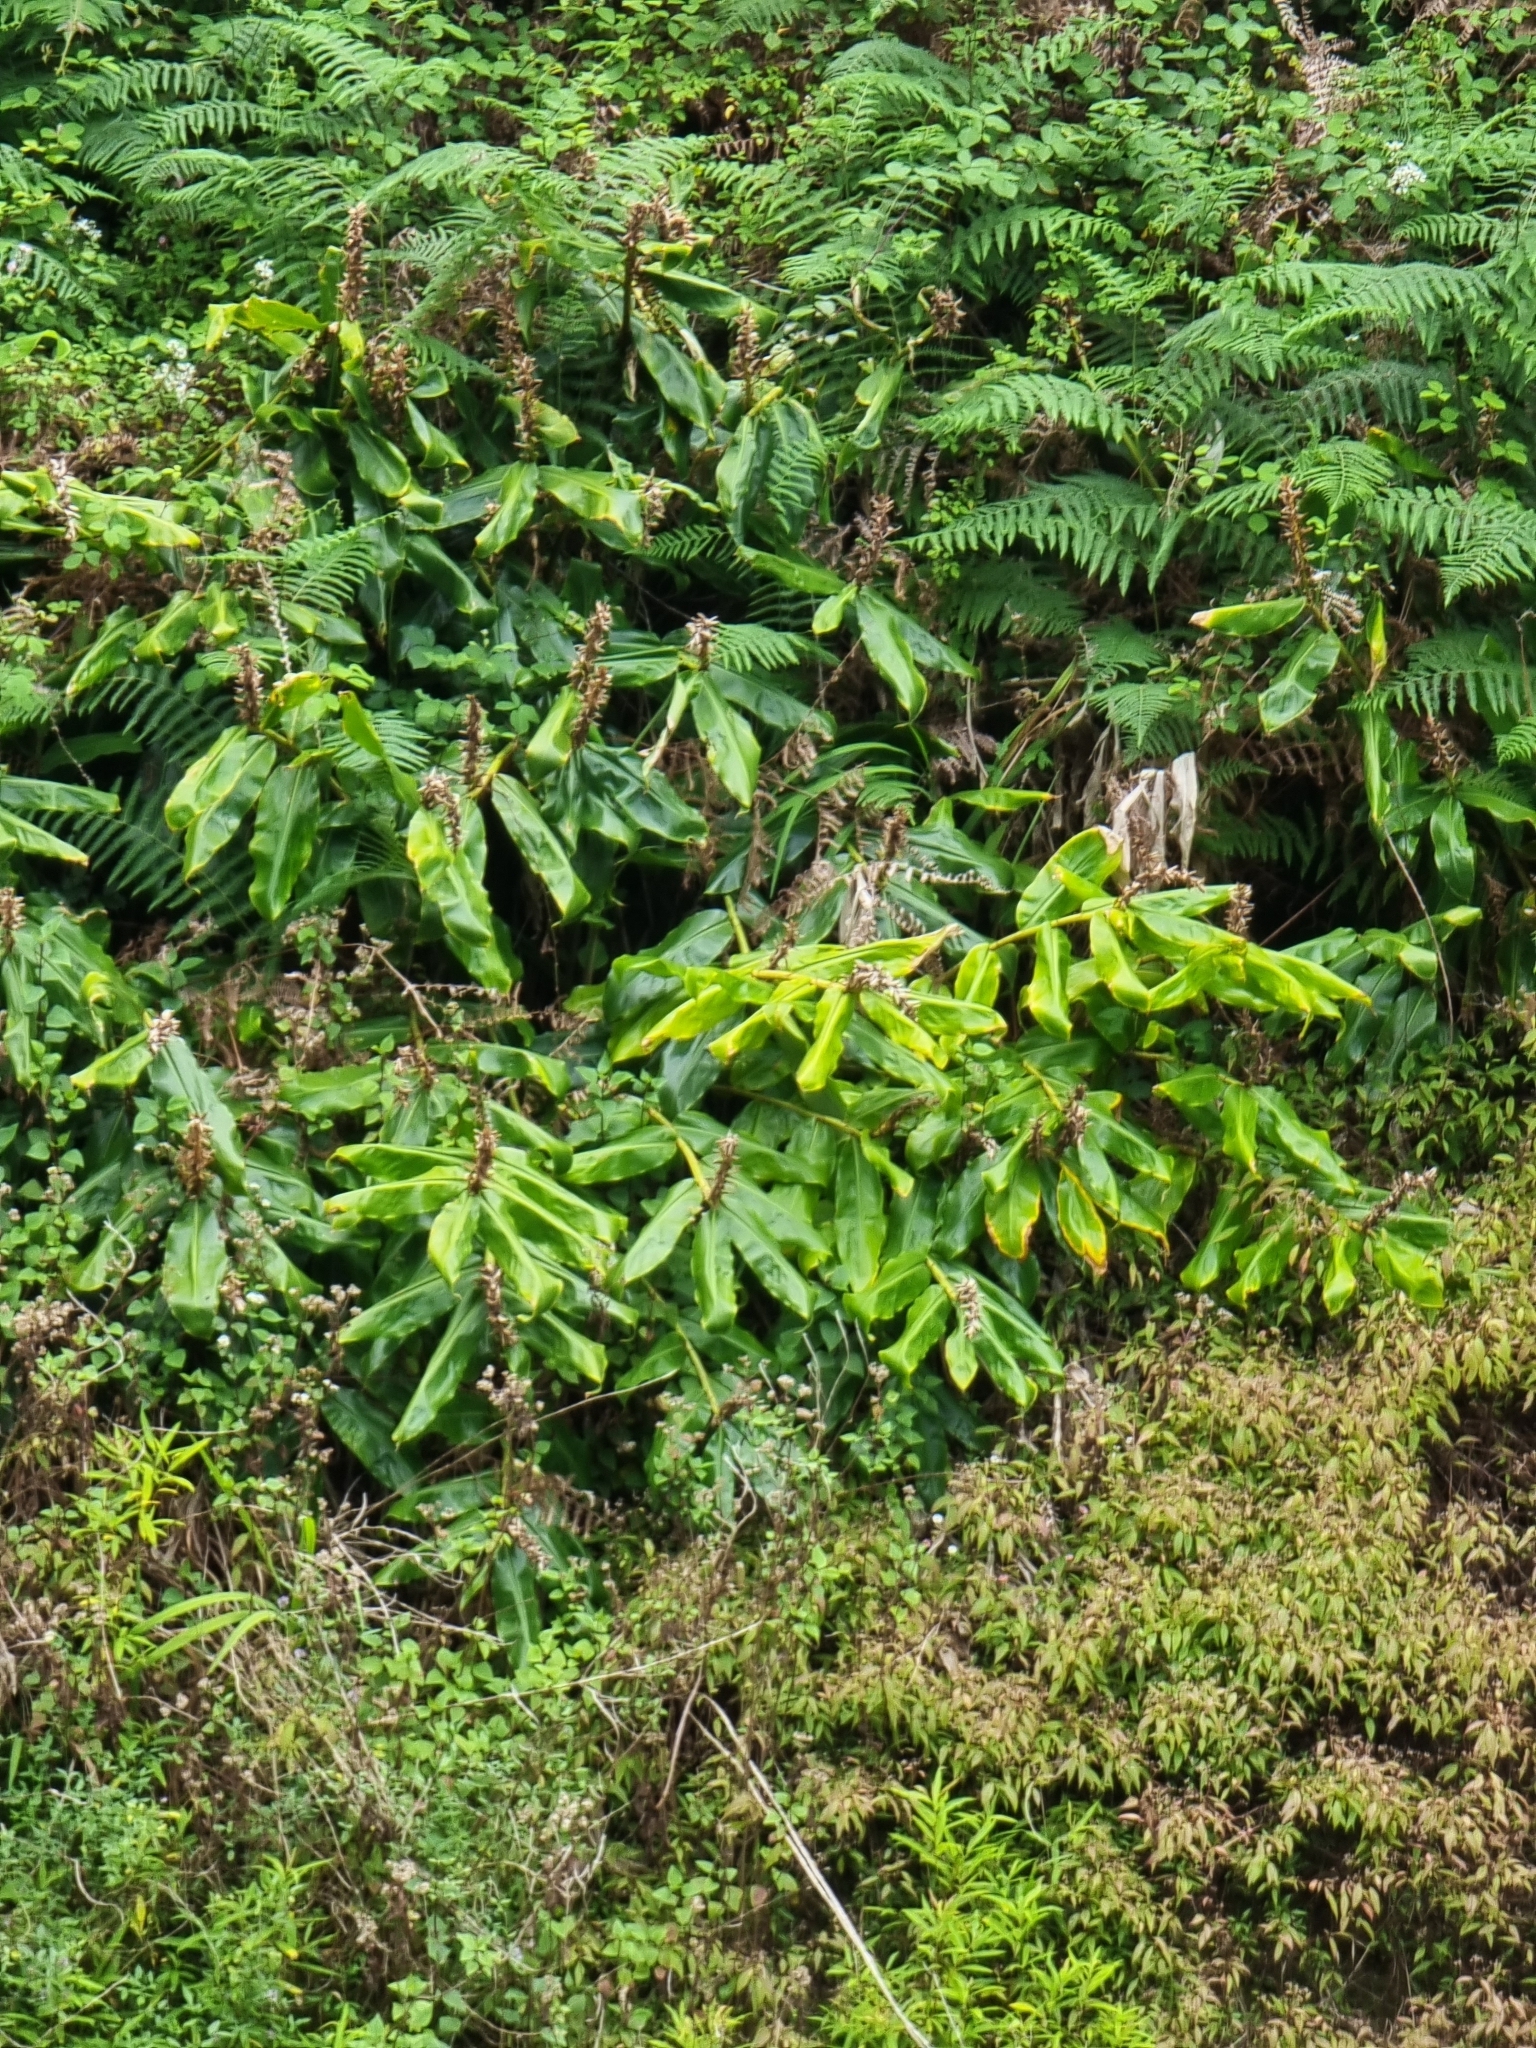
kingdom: Plantae
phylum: Tracheophyta
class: Liliopsida
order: Zingiberales
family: Zingiberaceae
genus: Hedychium
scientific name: Hedychium gardnerianum
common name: Himalayan ginger
